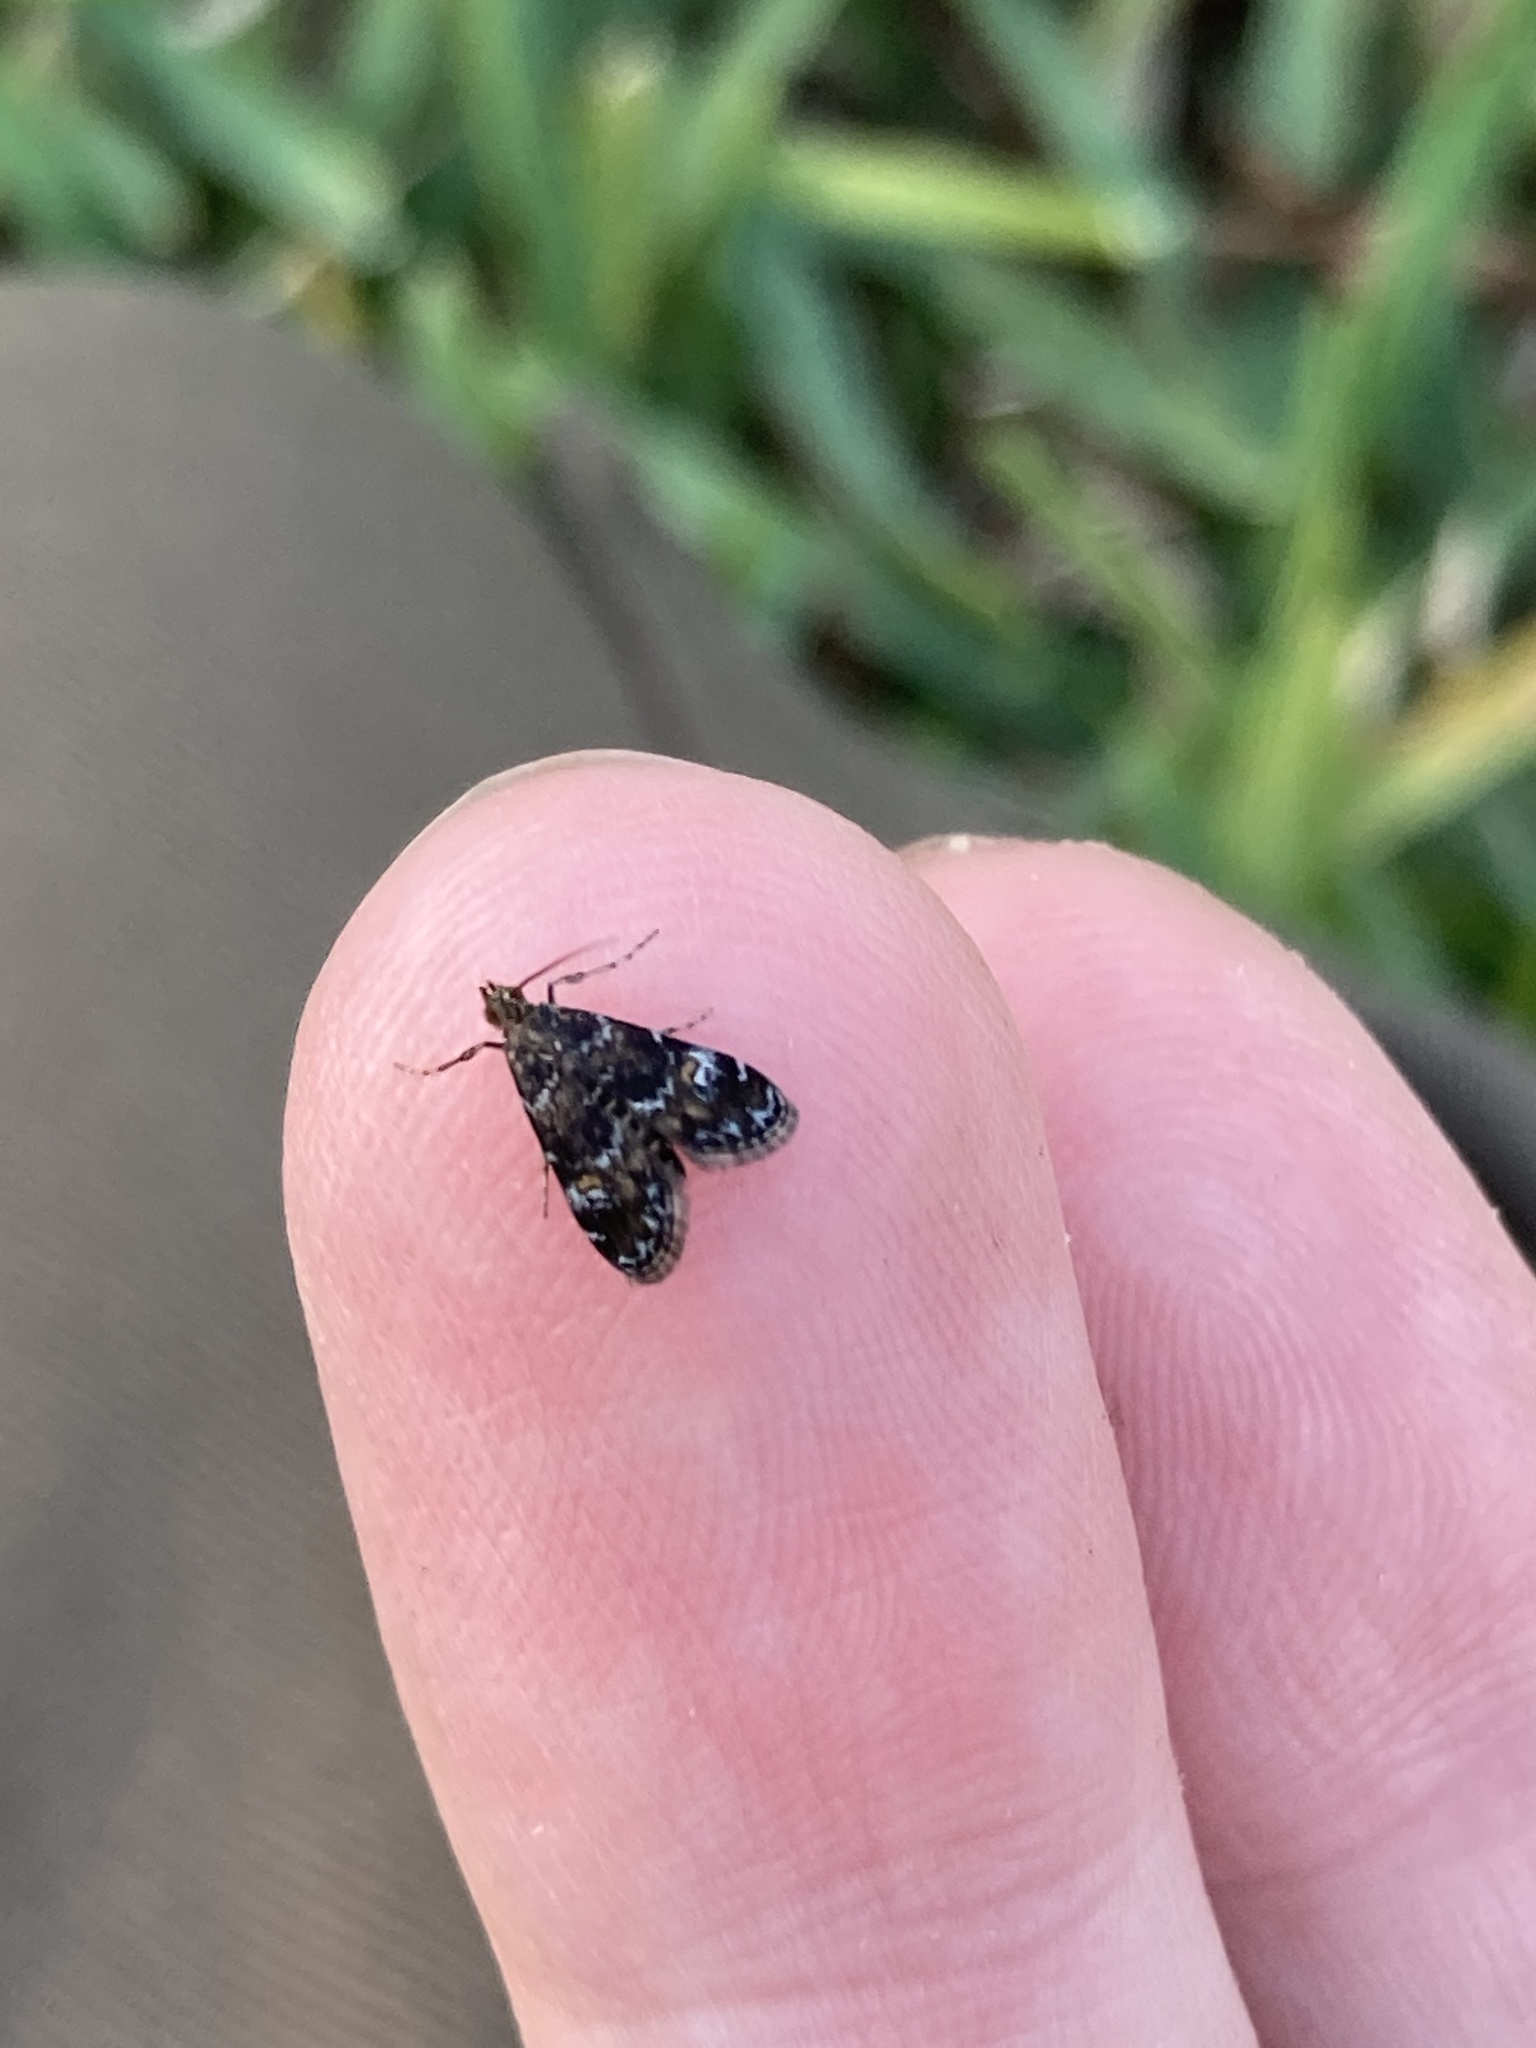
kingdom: Animalia
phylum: Arthropoda
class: Insecta
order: Lepidoptera
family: Crambidae
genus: Elophila
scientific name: Elophila obliteralis
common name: Waterlily leafcutter moth
